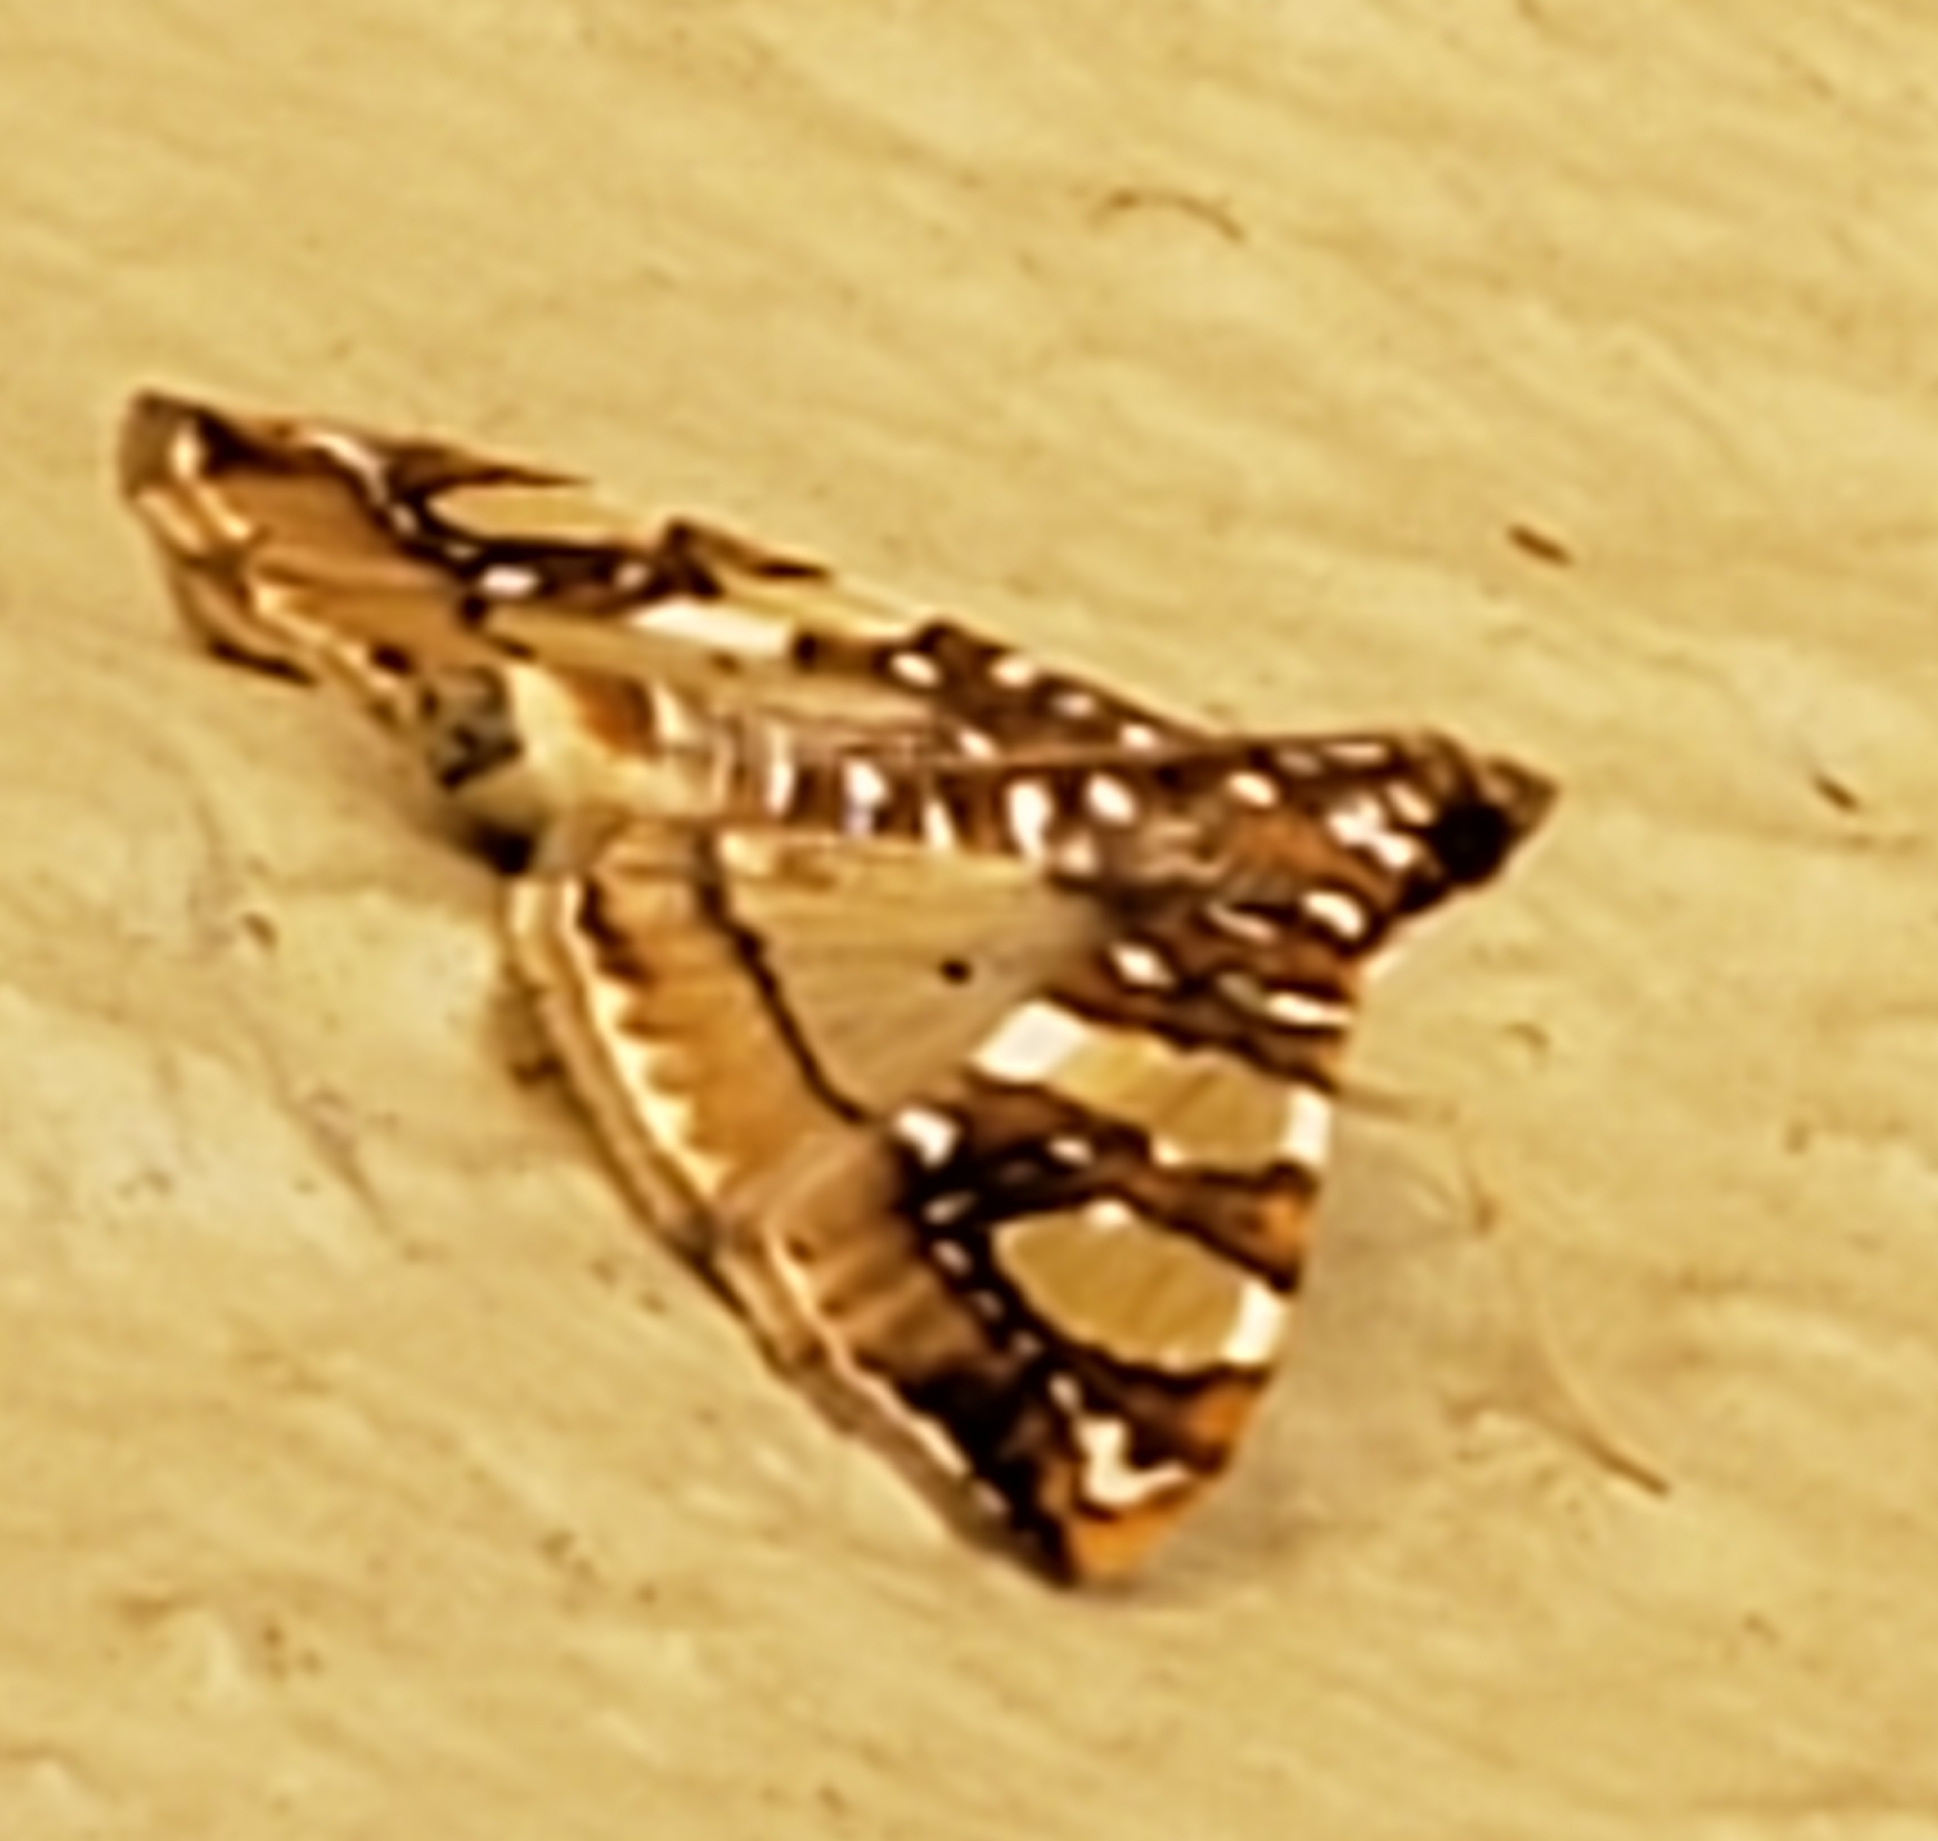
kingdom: Animalia
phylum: Arthropoda
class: Insecta
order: Lepidoptera
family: Crambidae
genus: Glyphodes
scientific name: Glyphodes sibillalis
